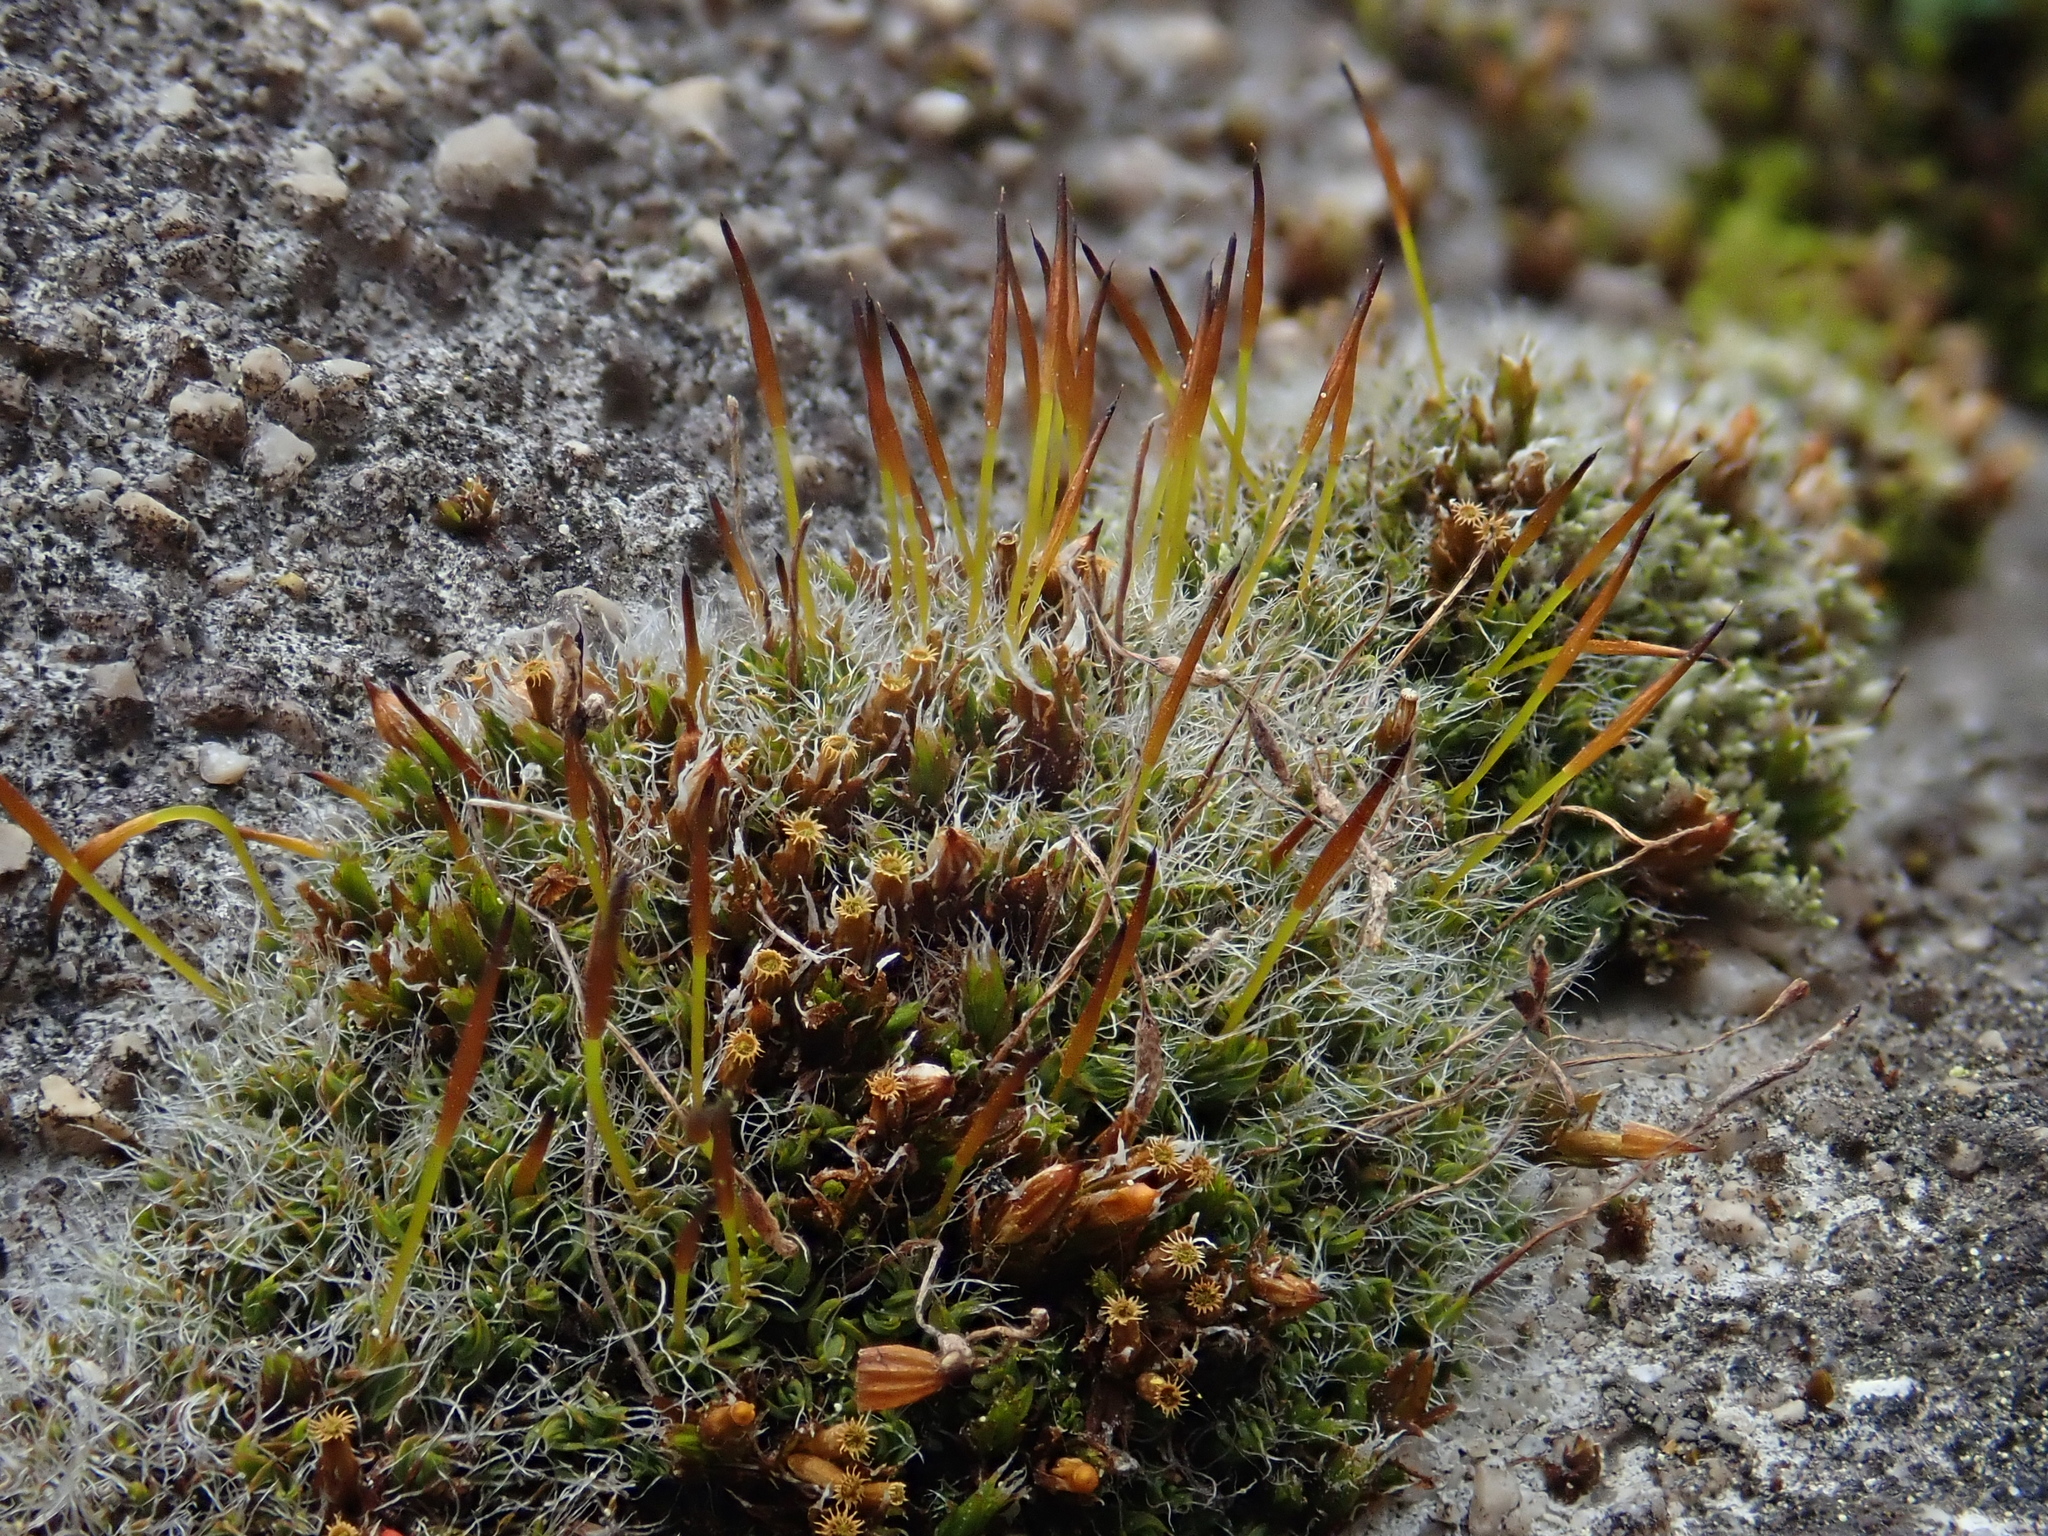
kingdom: Plantae
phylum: Bryophyta
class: Bryopsida
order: Pottiales
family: Pottiaceae
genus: Tortula
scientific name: Tortula muralis
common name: Wall screw-moss
